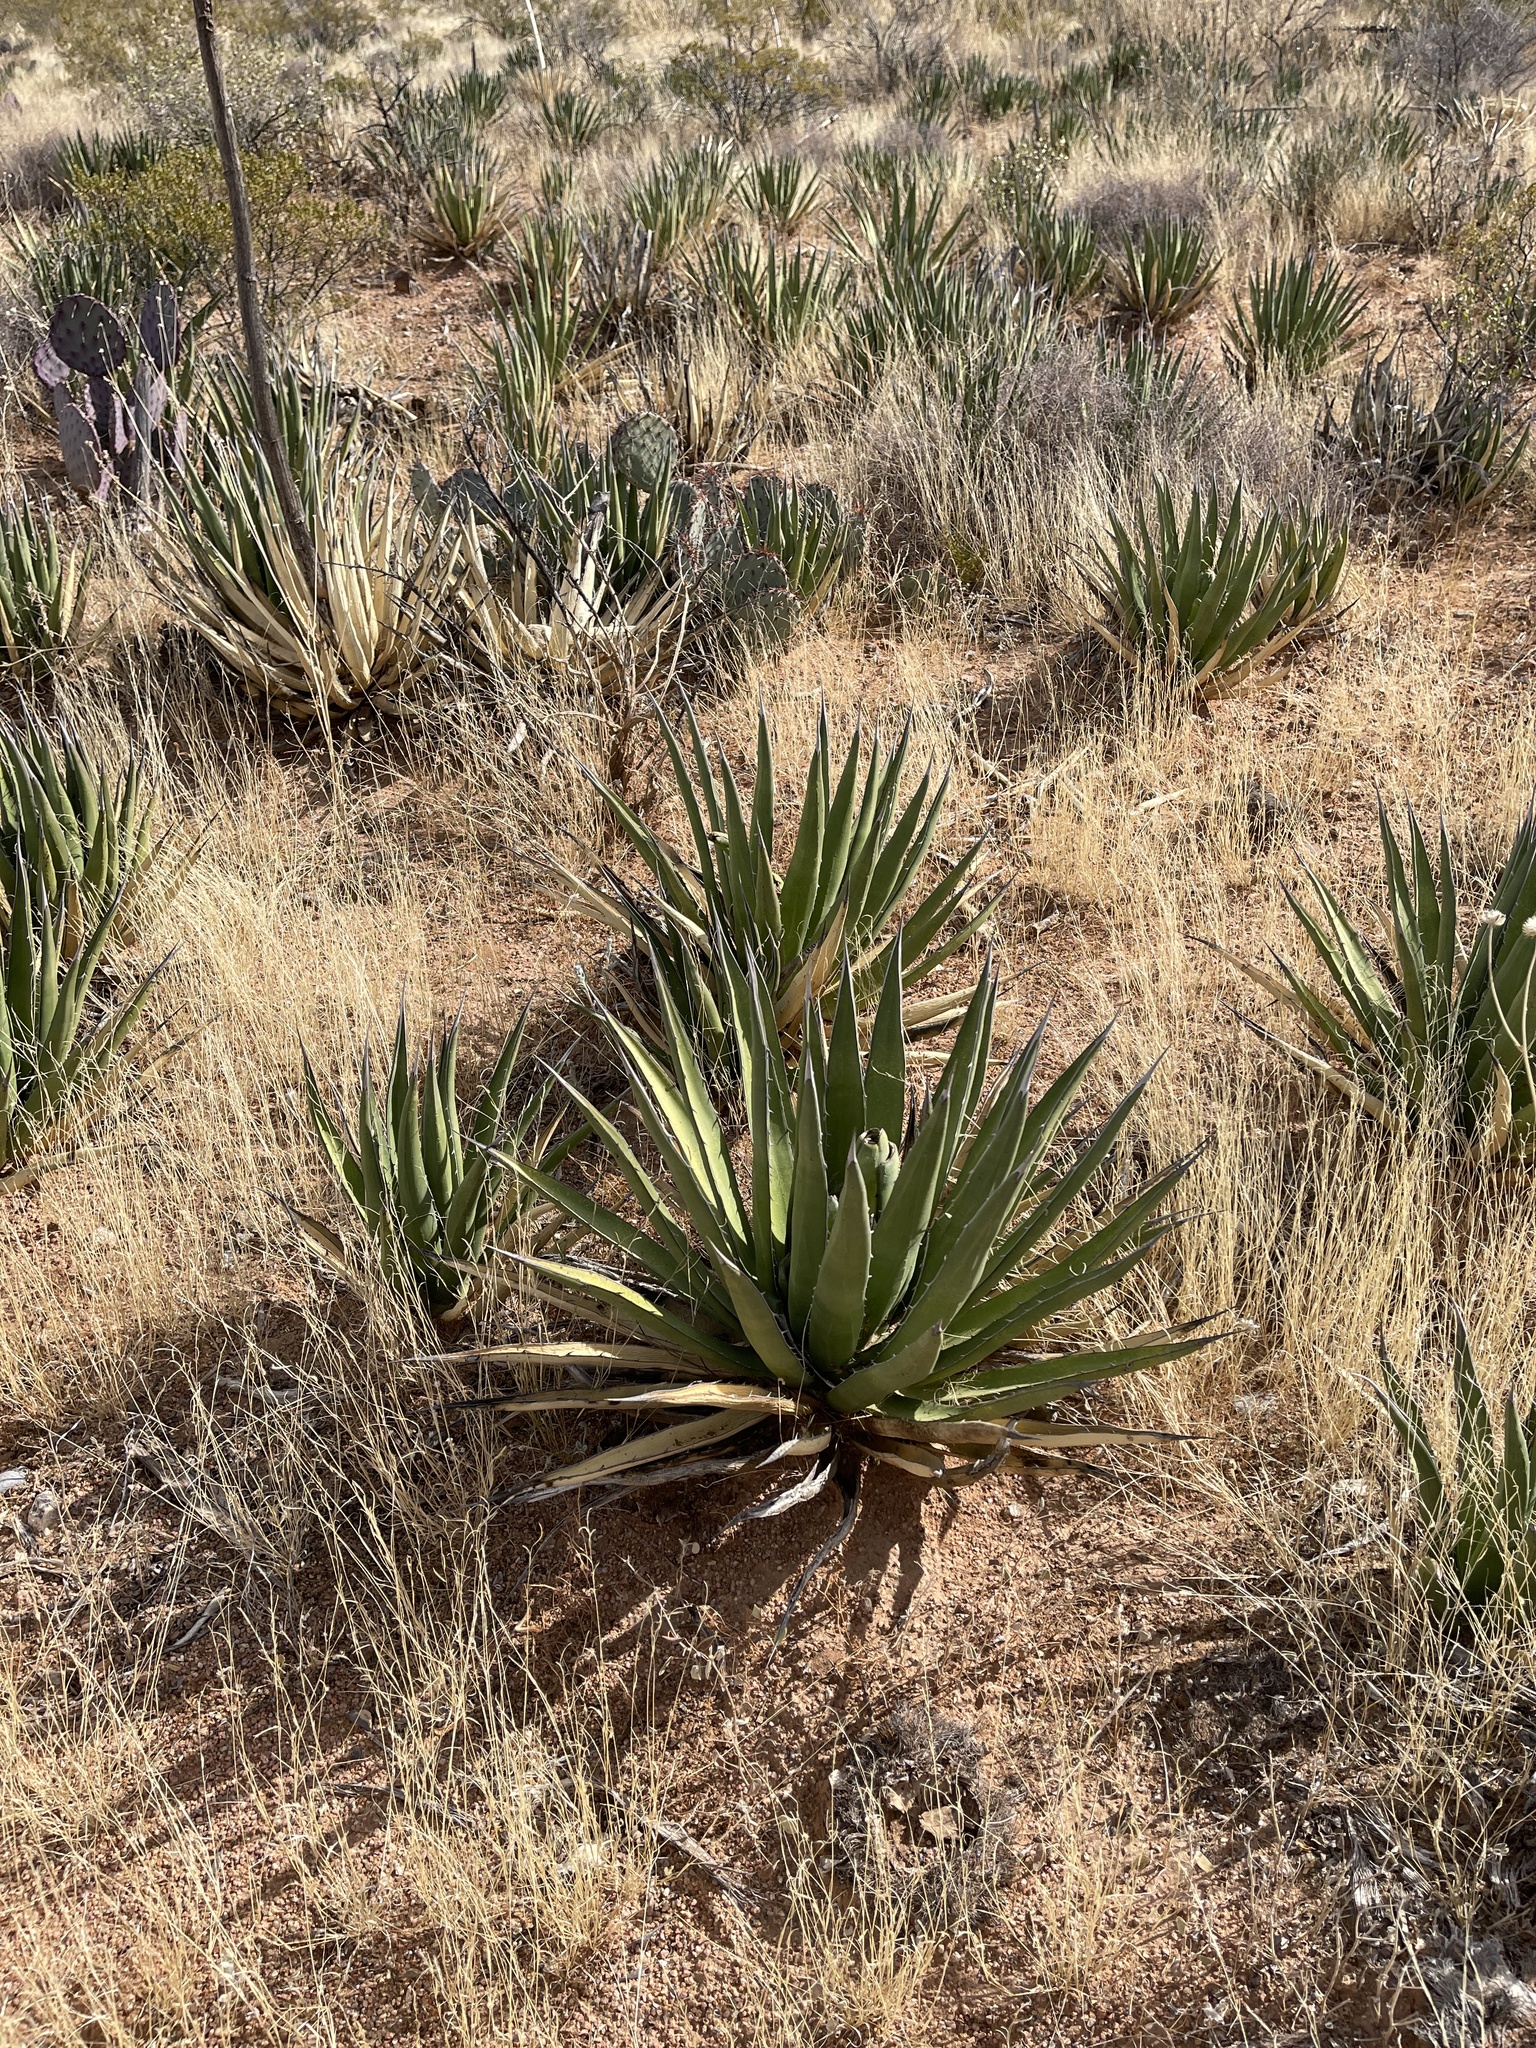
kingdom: Plantae
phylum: Tracheophyta
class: Liliopsida
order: Asparagales
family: Asparagaceae
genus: Agave
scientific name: Agave lechuguilla
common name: Lecheguilla agave
